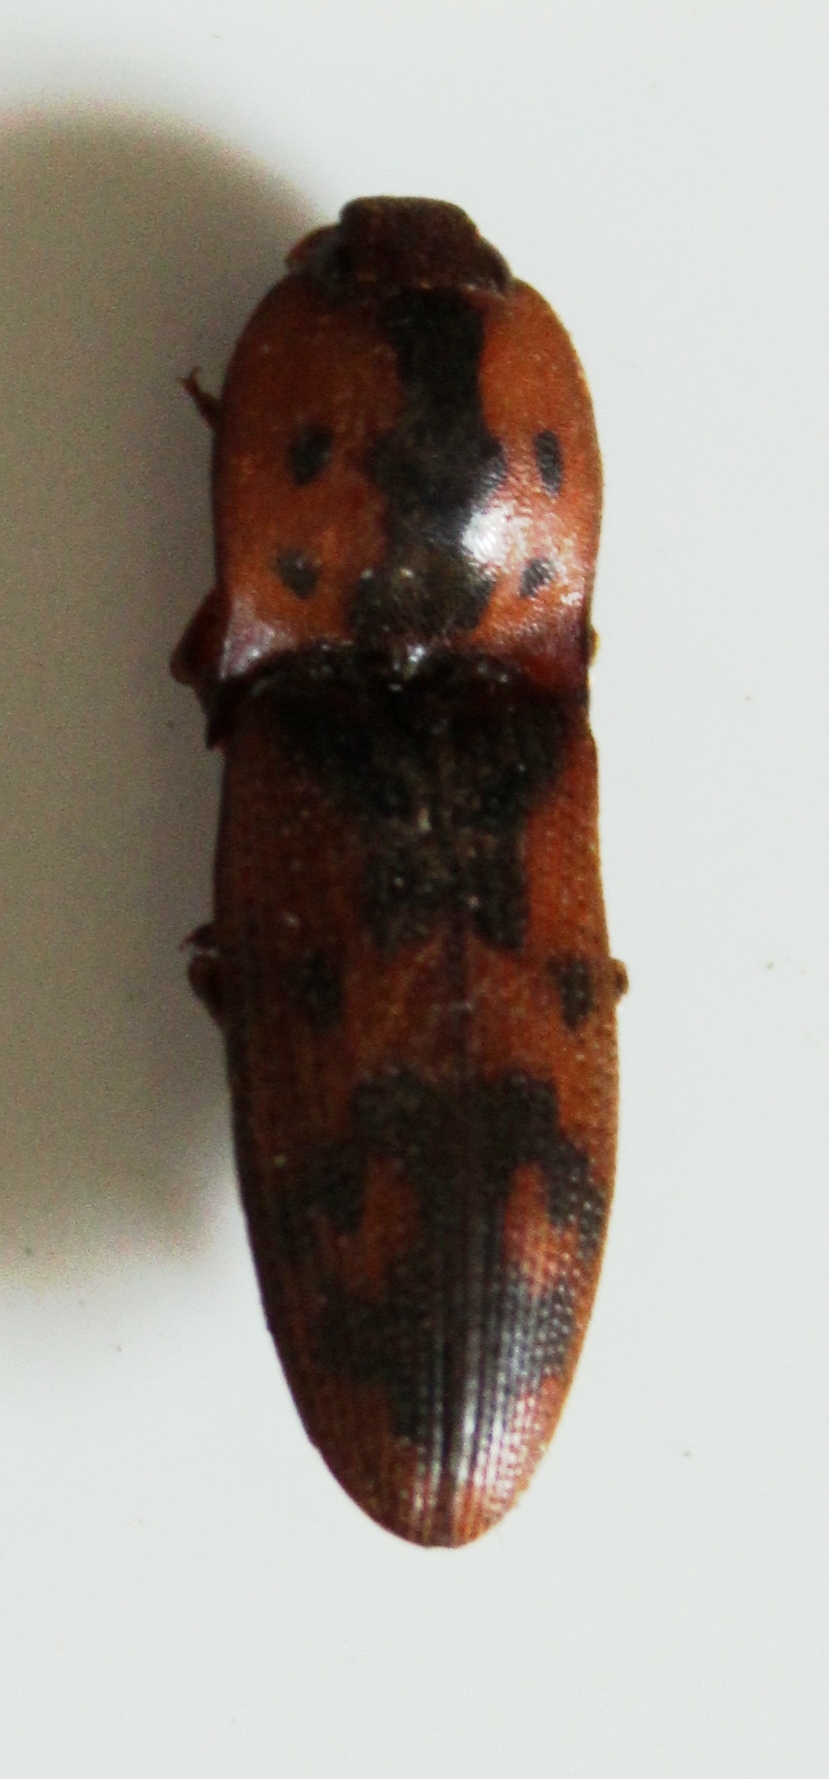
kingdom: Animalia
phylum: Arthropoda
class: Insecta
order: Coleoptera
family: Elateridae
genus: Monocrepidius
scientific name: Monocrepidius pilatei
